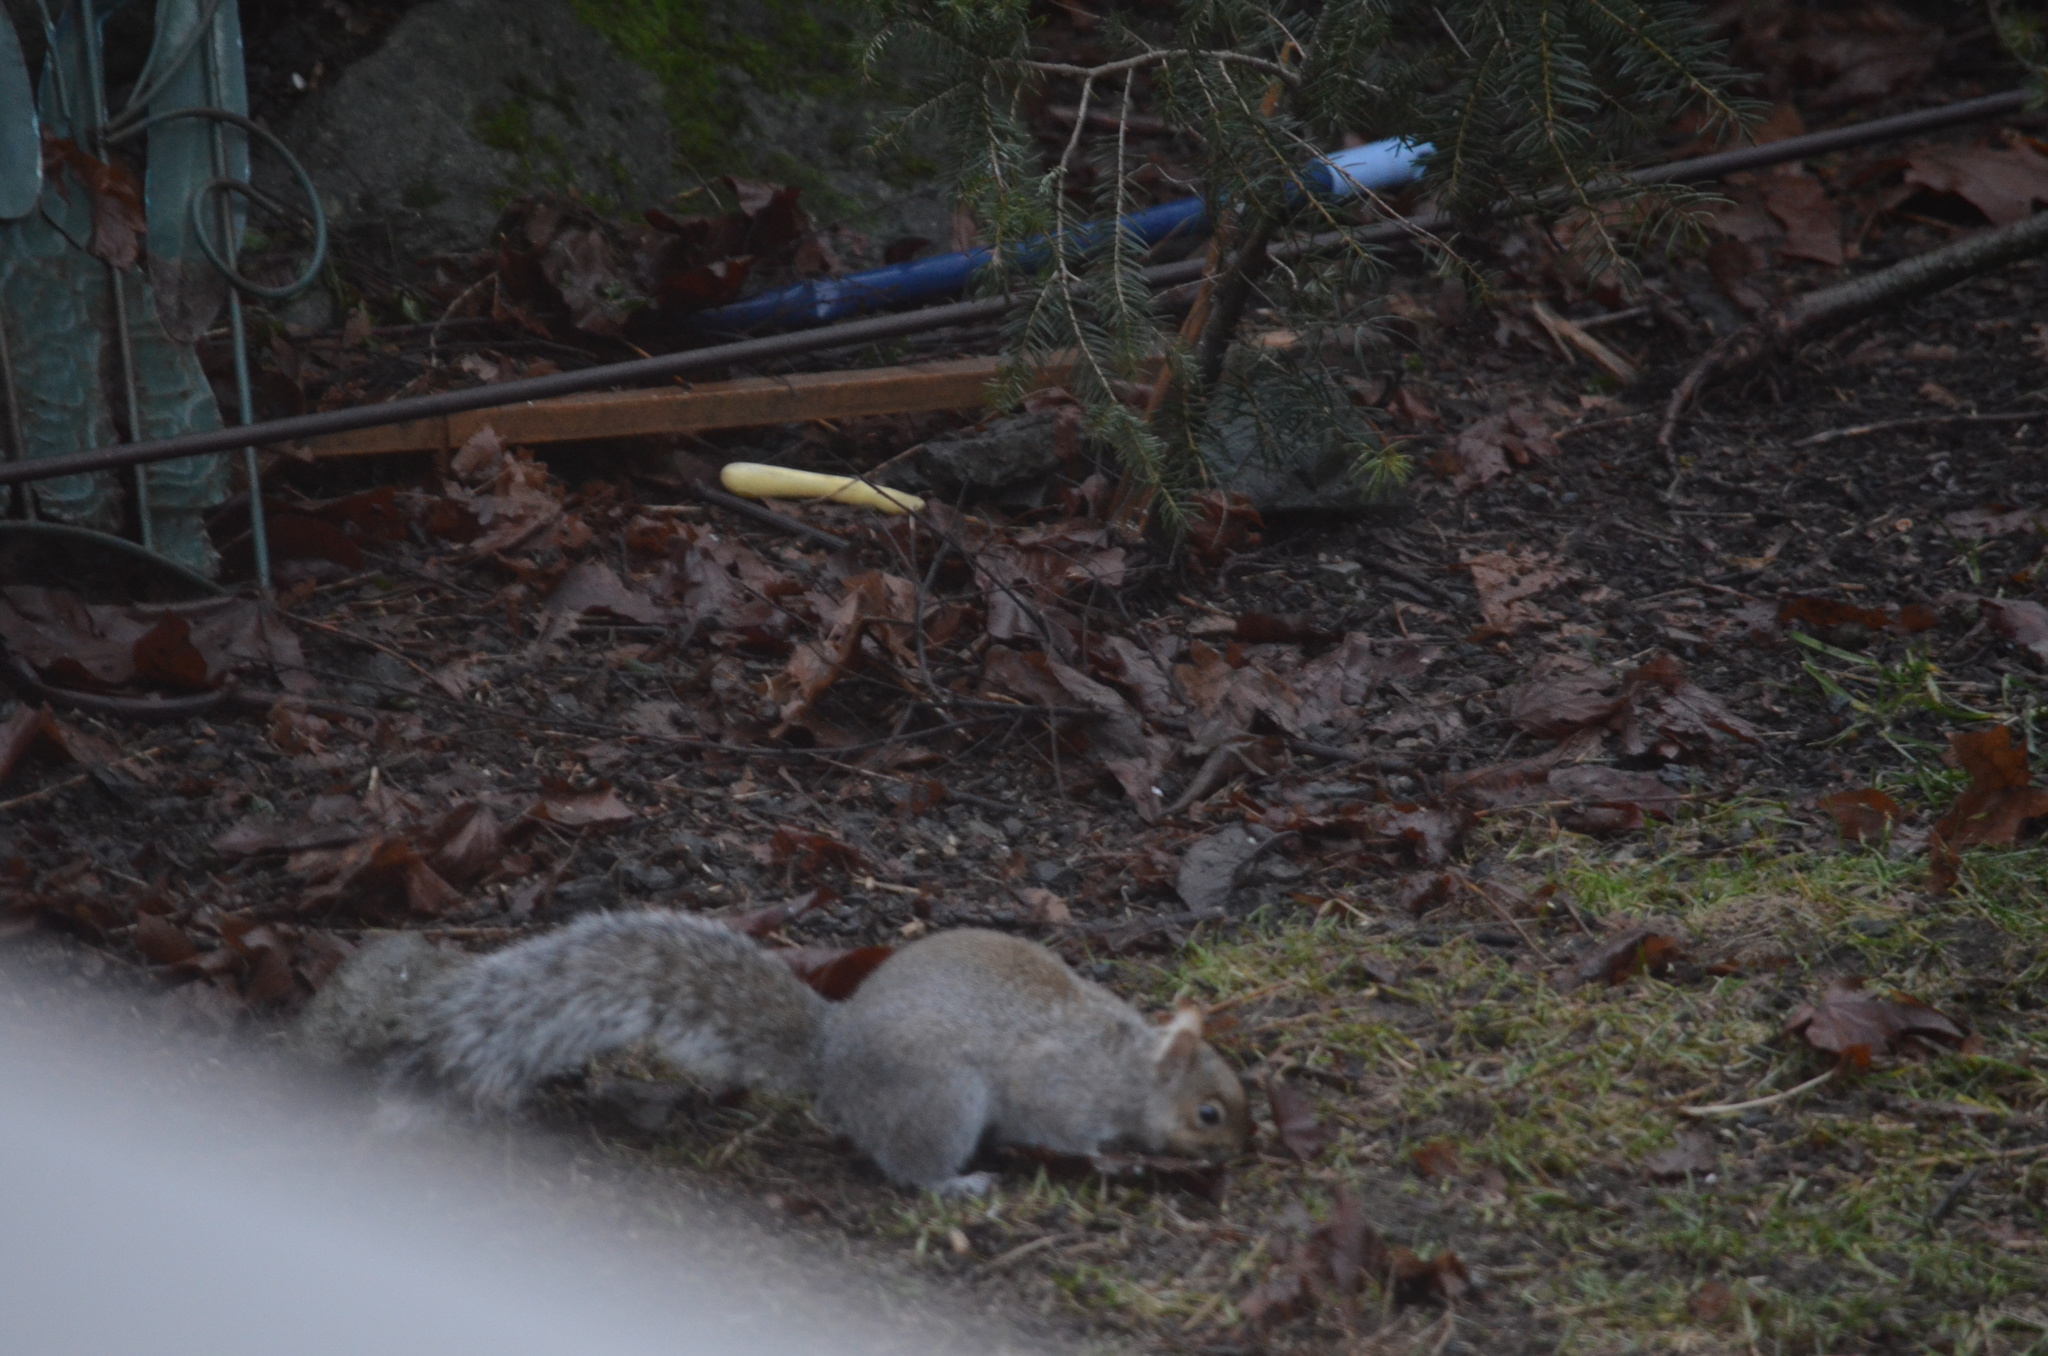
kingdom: Animalia
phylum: Chordata
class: Mammalia
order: Rodentia
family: Sciuridae
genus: Sciurus
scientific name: Sciurus carolinensis
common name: Eastern gray squirrel
